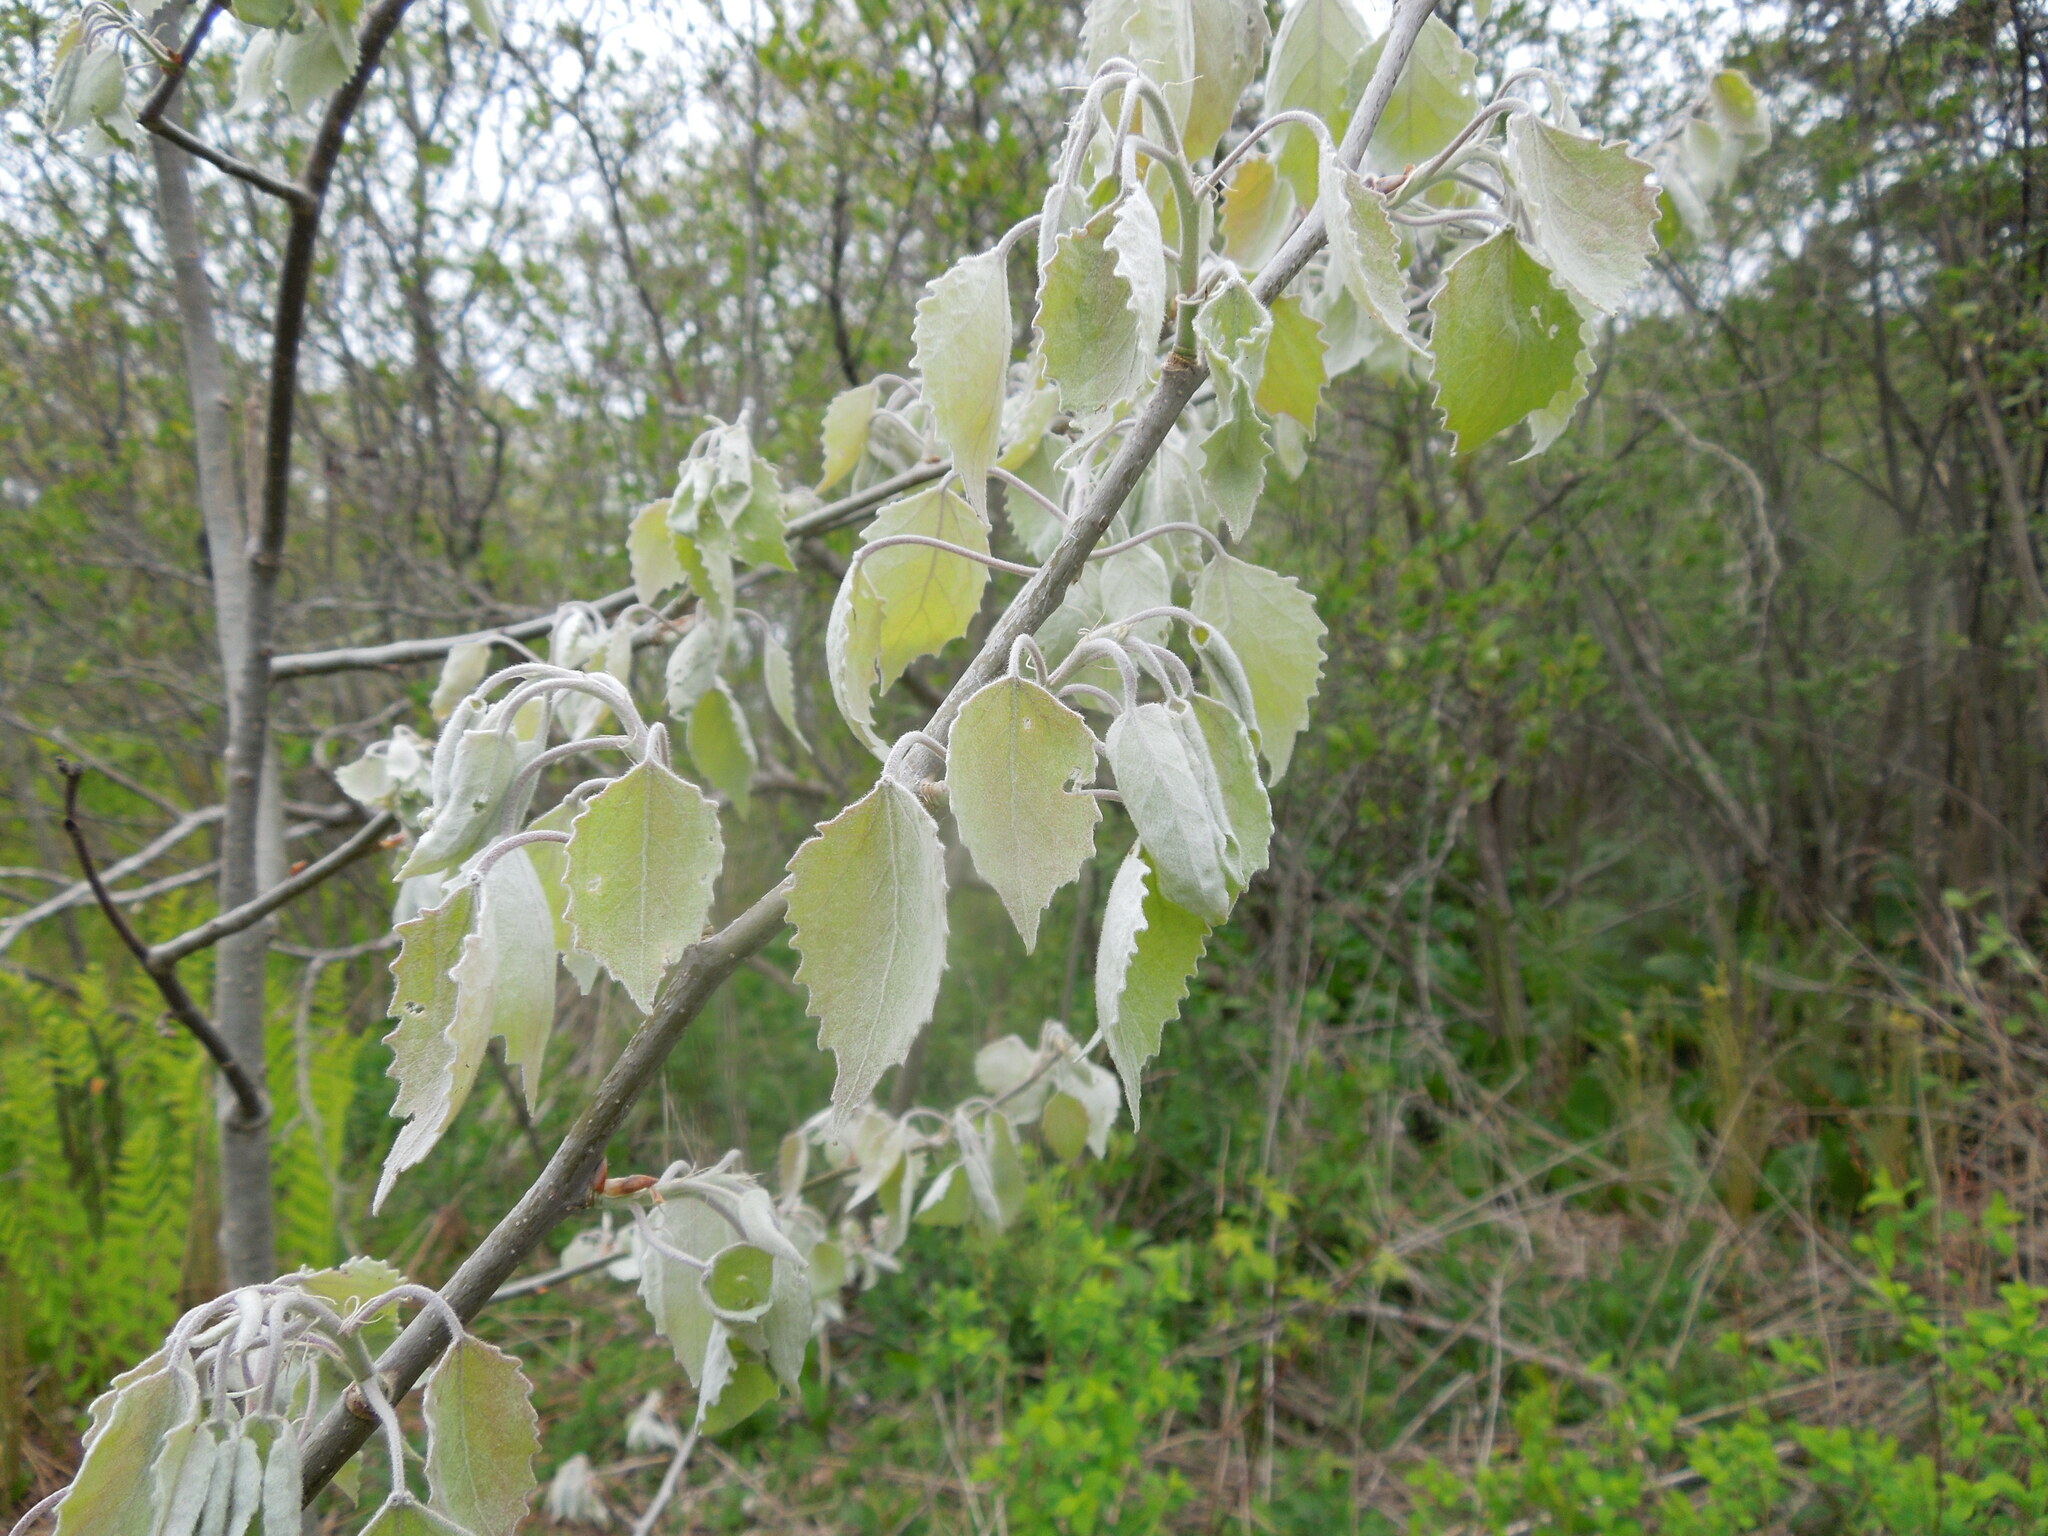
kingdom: Plantae
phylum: Tracheophyta
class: Magnoliopsida
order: Malpighiales
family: Salicaceae
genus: Populus
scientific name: Populus grandidentata
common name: Bigtooth aspen
